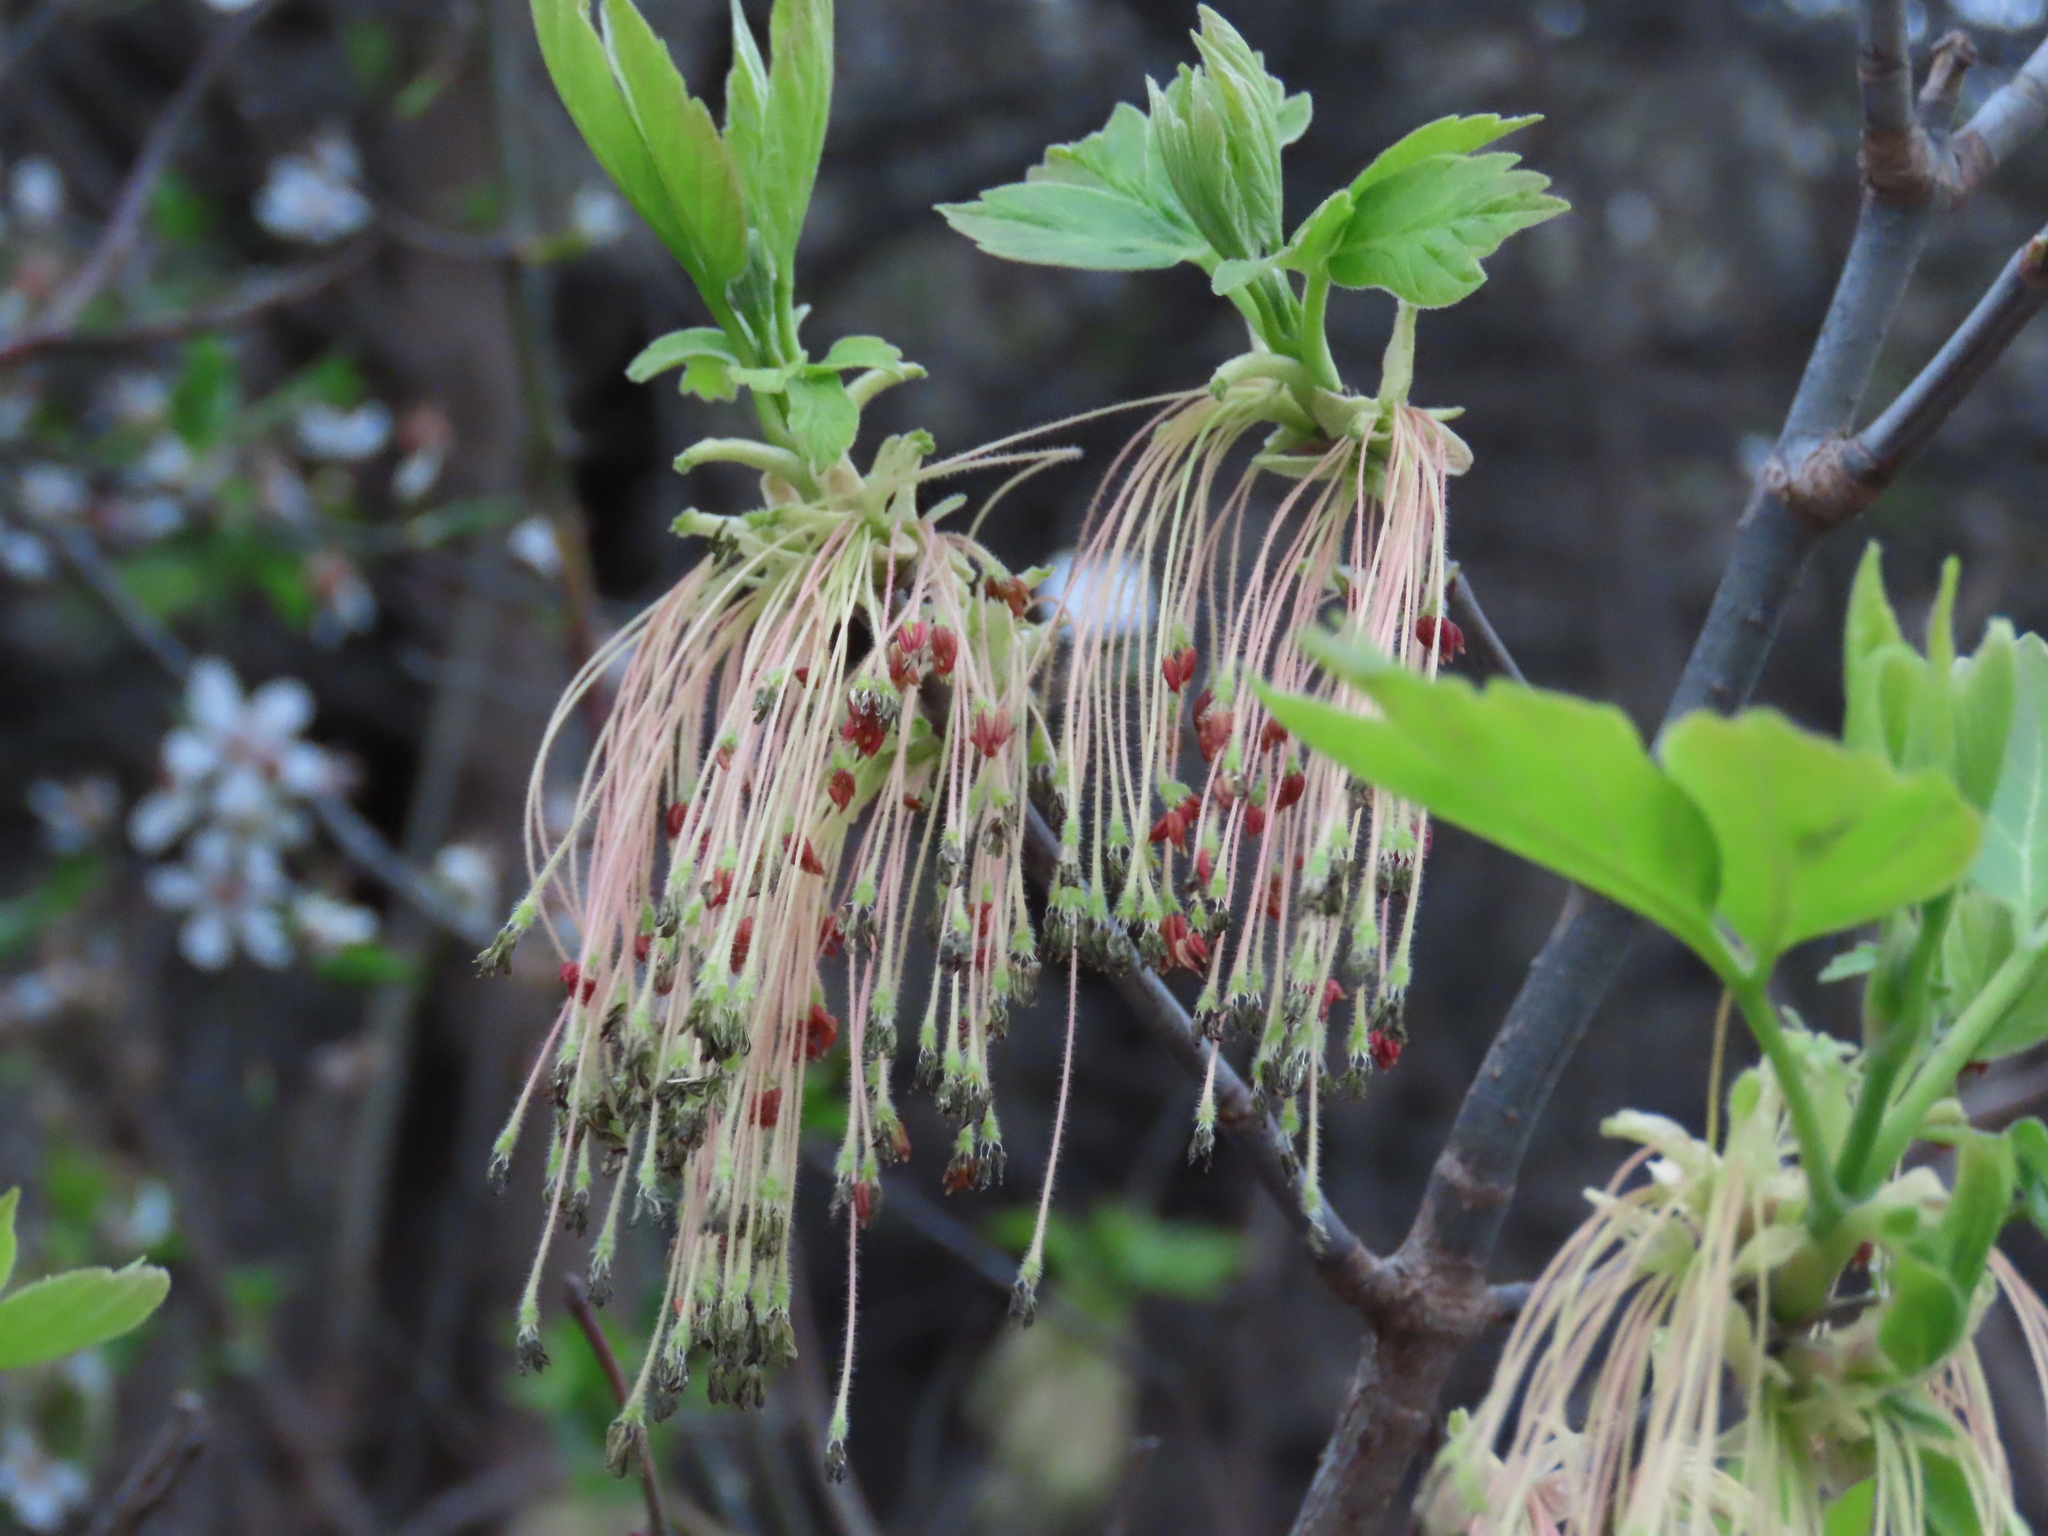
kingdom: Plantae
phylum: Tracheophyta
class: Magnoliopsida
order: Sapindales
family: Sapindaceae
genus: Acer
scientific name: Acer negundo
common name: Ashleaf maple
